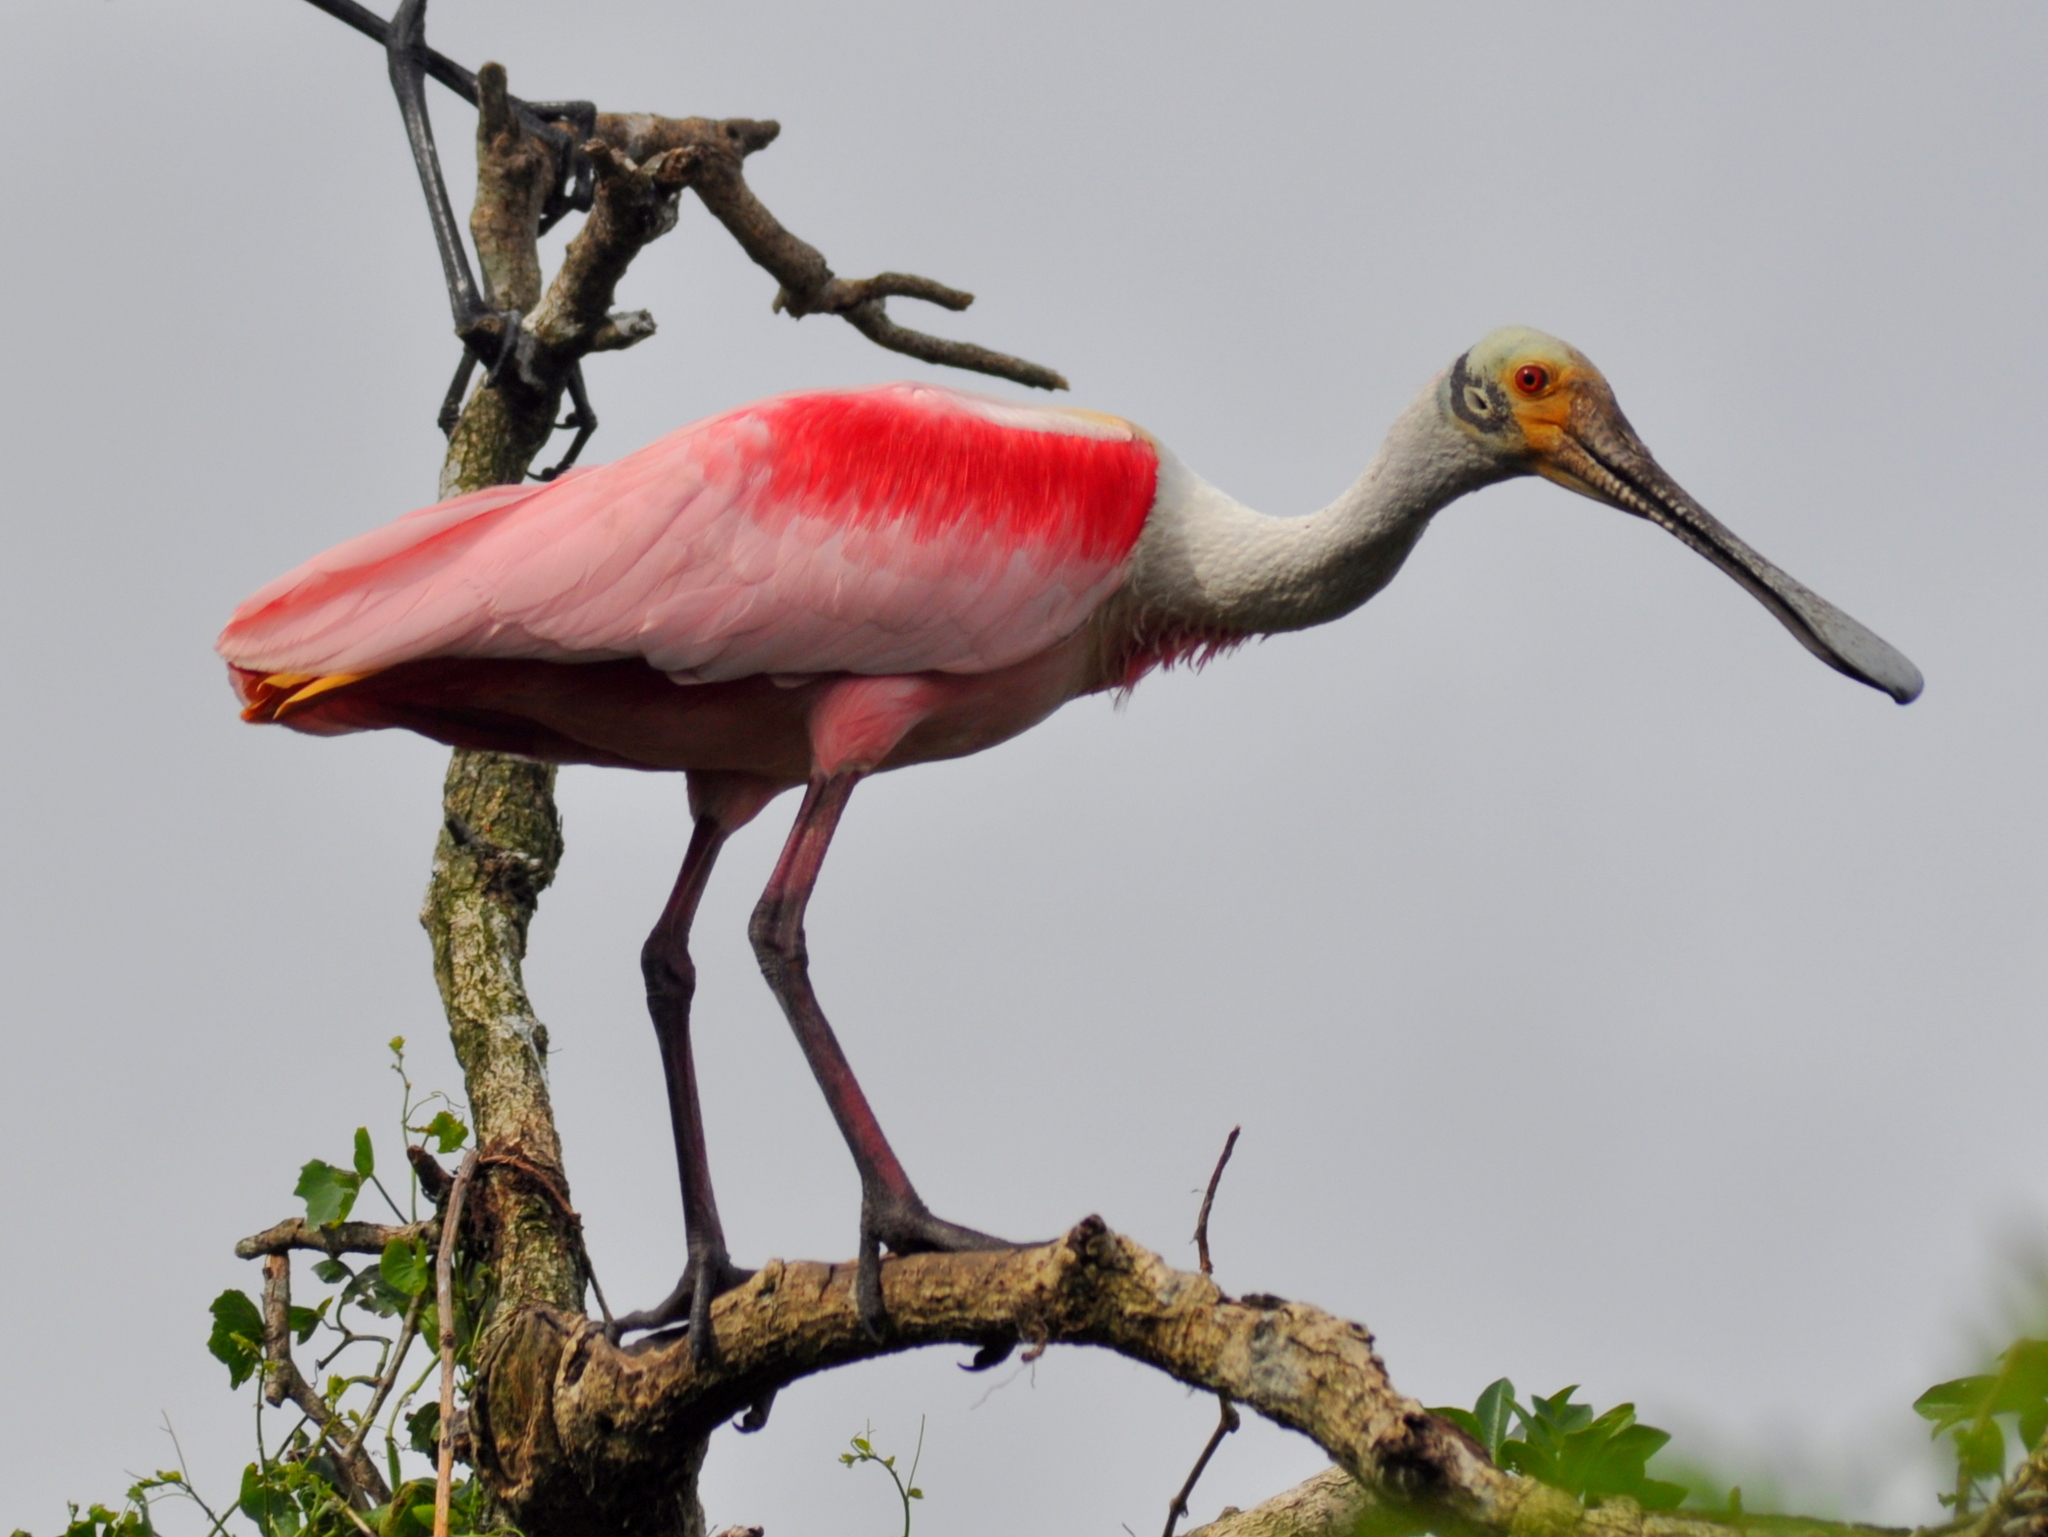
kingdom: Animalia
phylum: Chordata
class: Aves
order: Pelecaniformes
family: Threskiornithidae
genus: Platalea
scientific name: Platalea ajaja
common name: Roseate spoonbill
